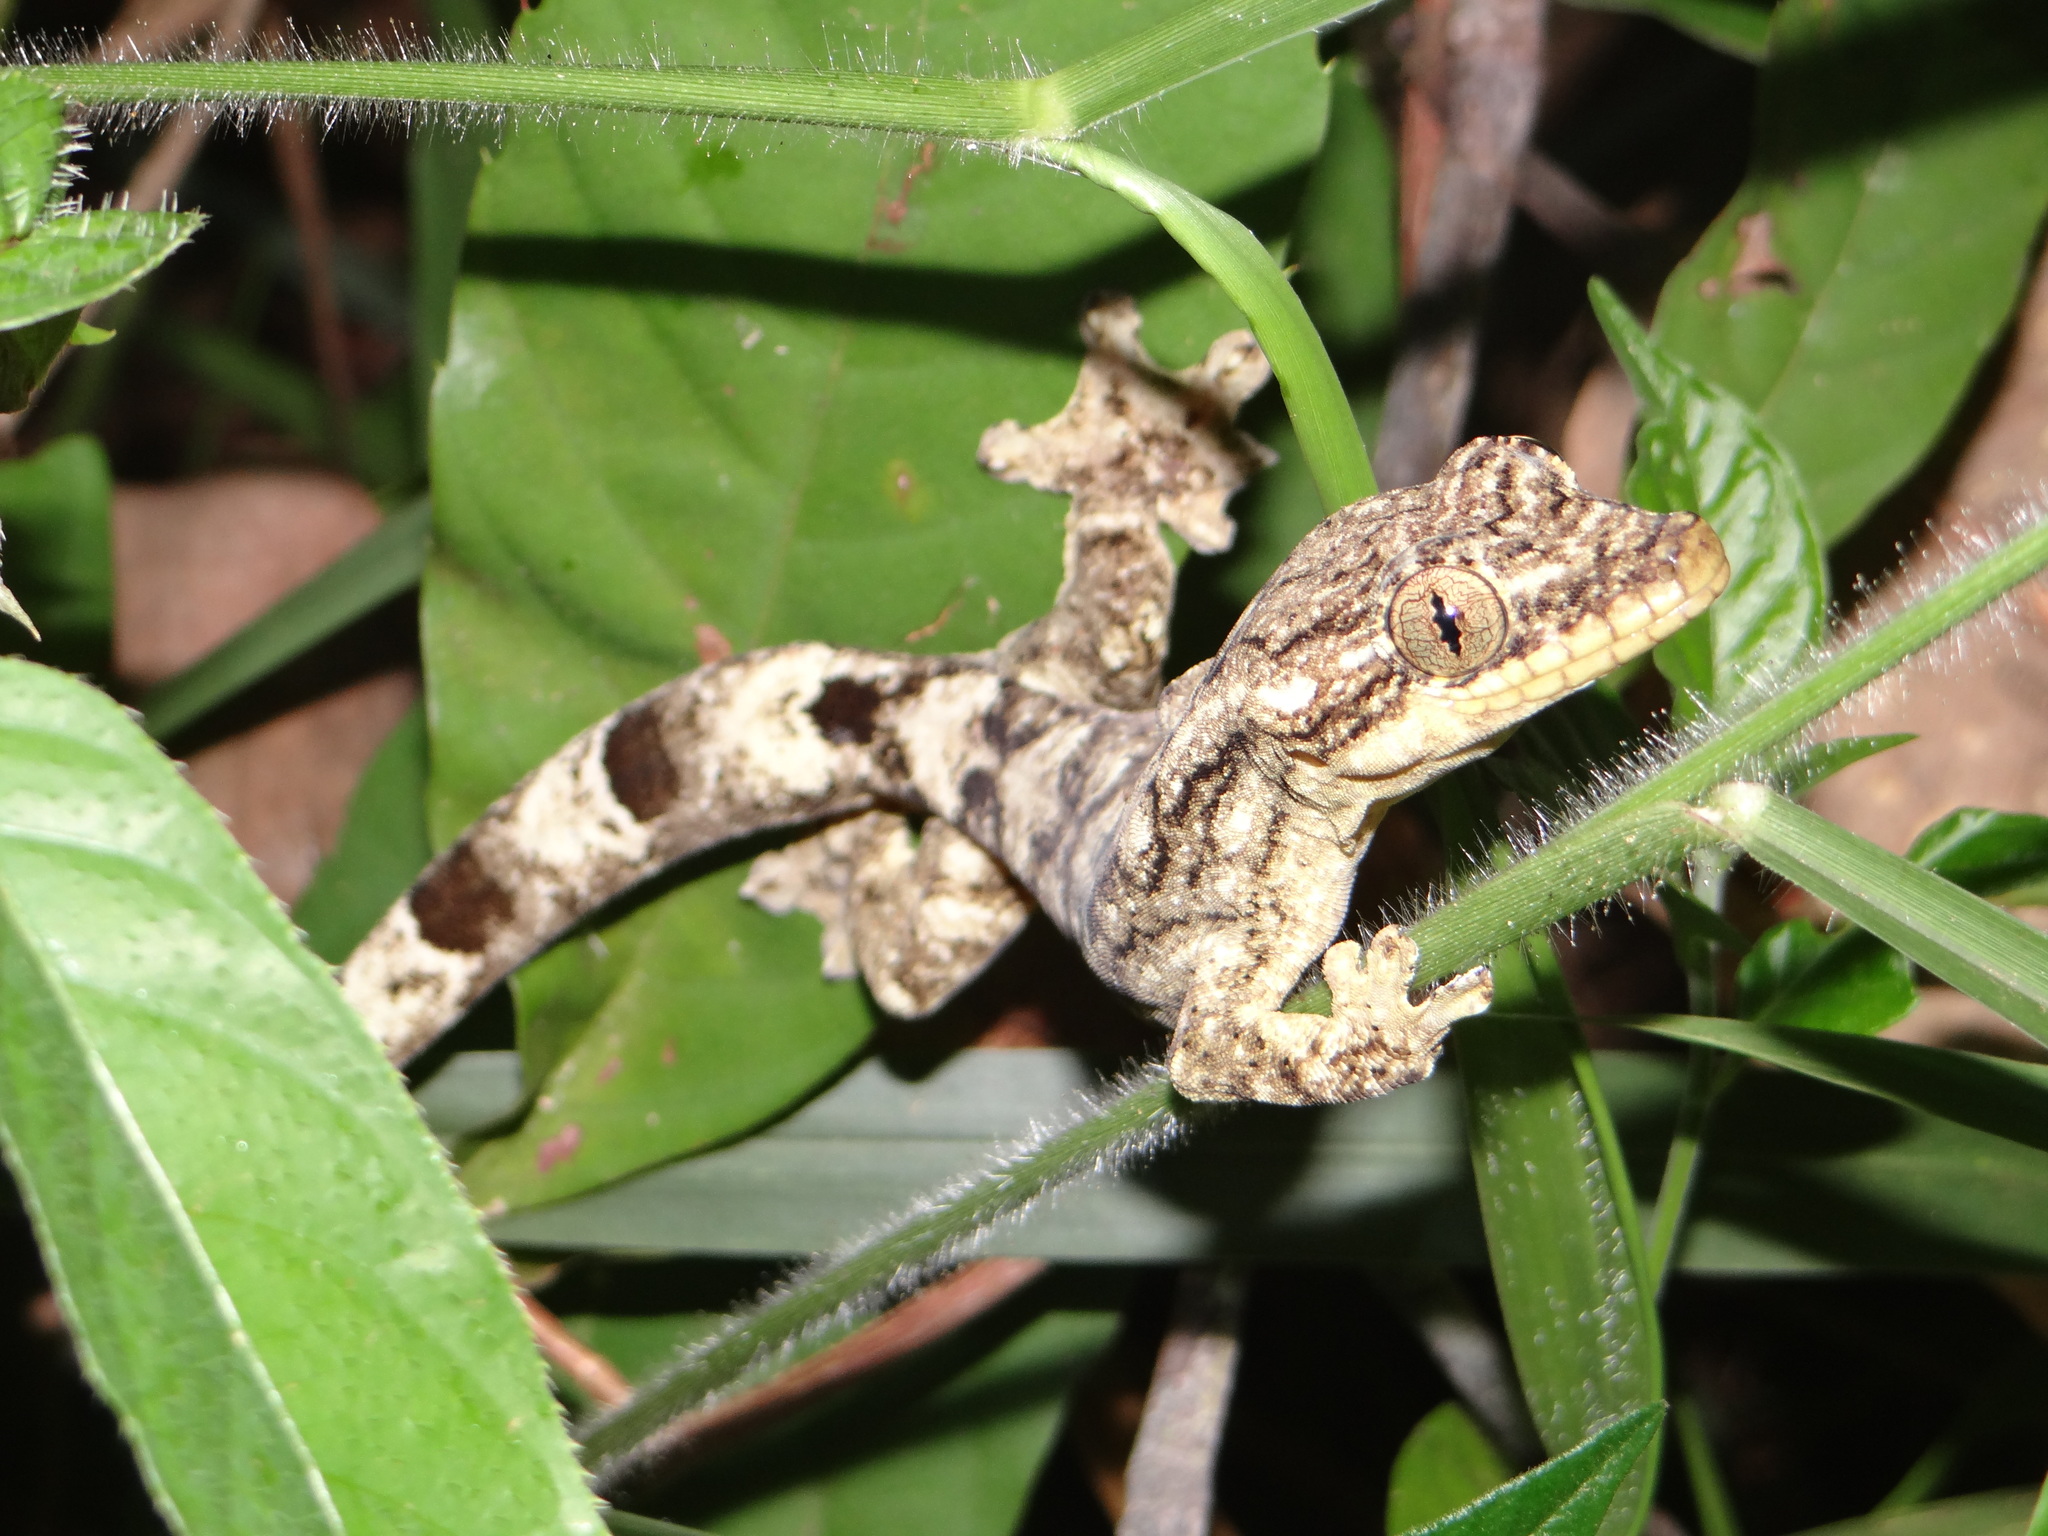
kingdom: Animalia
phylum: Chordata
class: Squamata
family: Phyllodactylidae
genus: Thecadactylus
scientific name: Thecadactylus solimoensis
